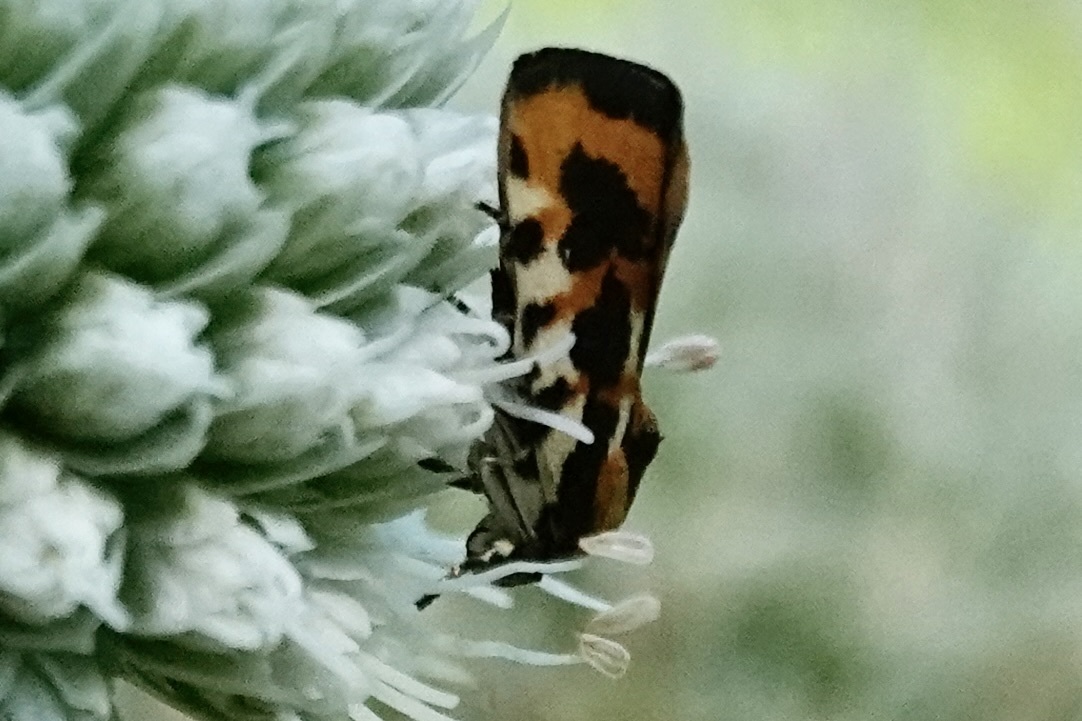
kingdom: Animalia
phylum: Arthropoda
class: Insecta
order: Lepidoptera
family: Noctuidae
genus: Acontia
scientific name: Acontia leo
